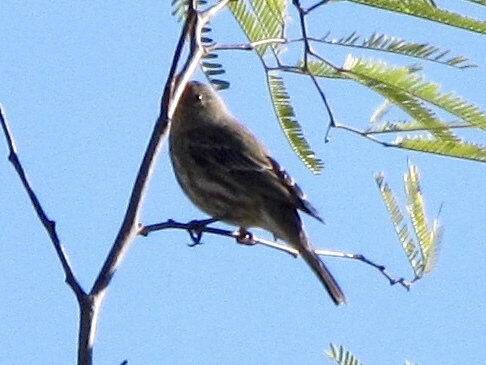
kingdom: Animalia
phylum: Chordata
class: Aves
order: Passeriformes
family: Fringillidae
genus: Haemorhous
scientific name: Haemorhous mexicanus
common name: House finch
